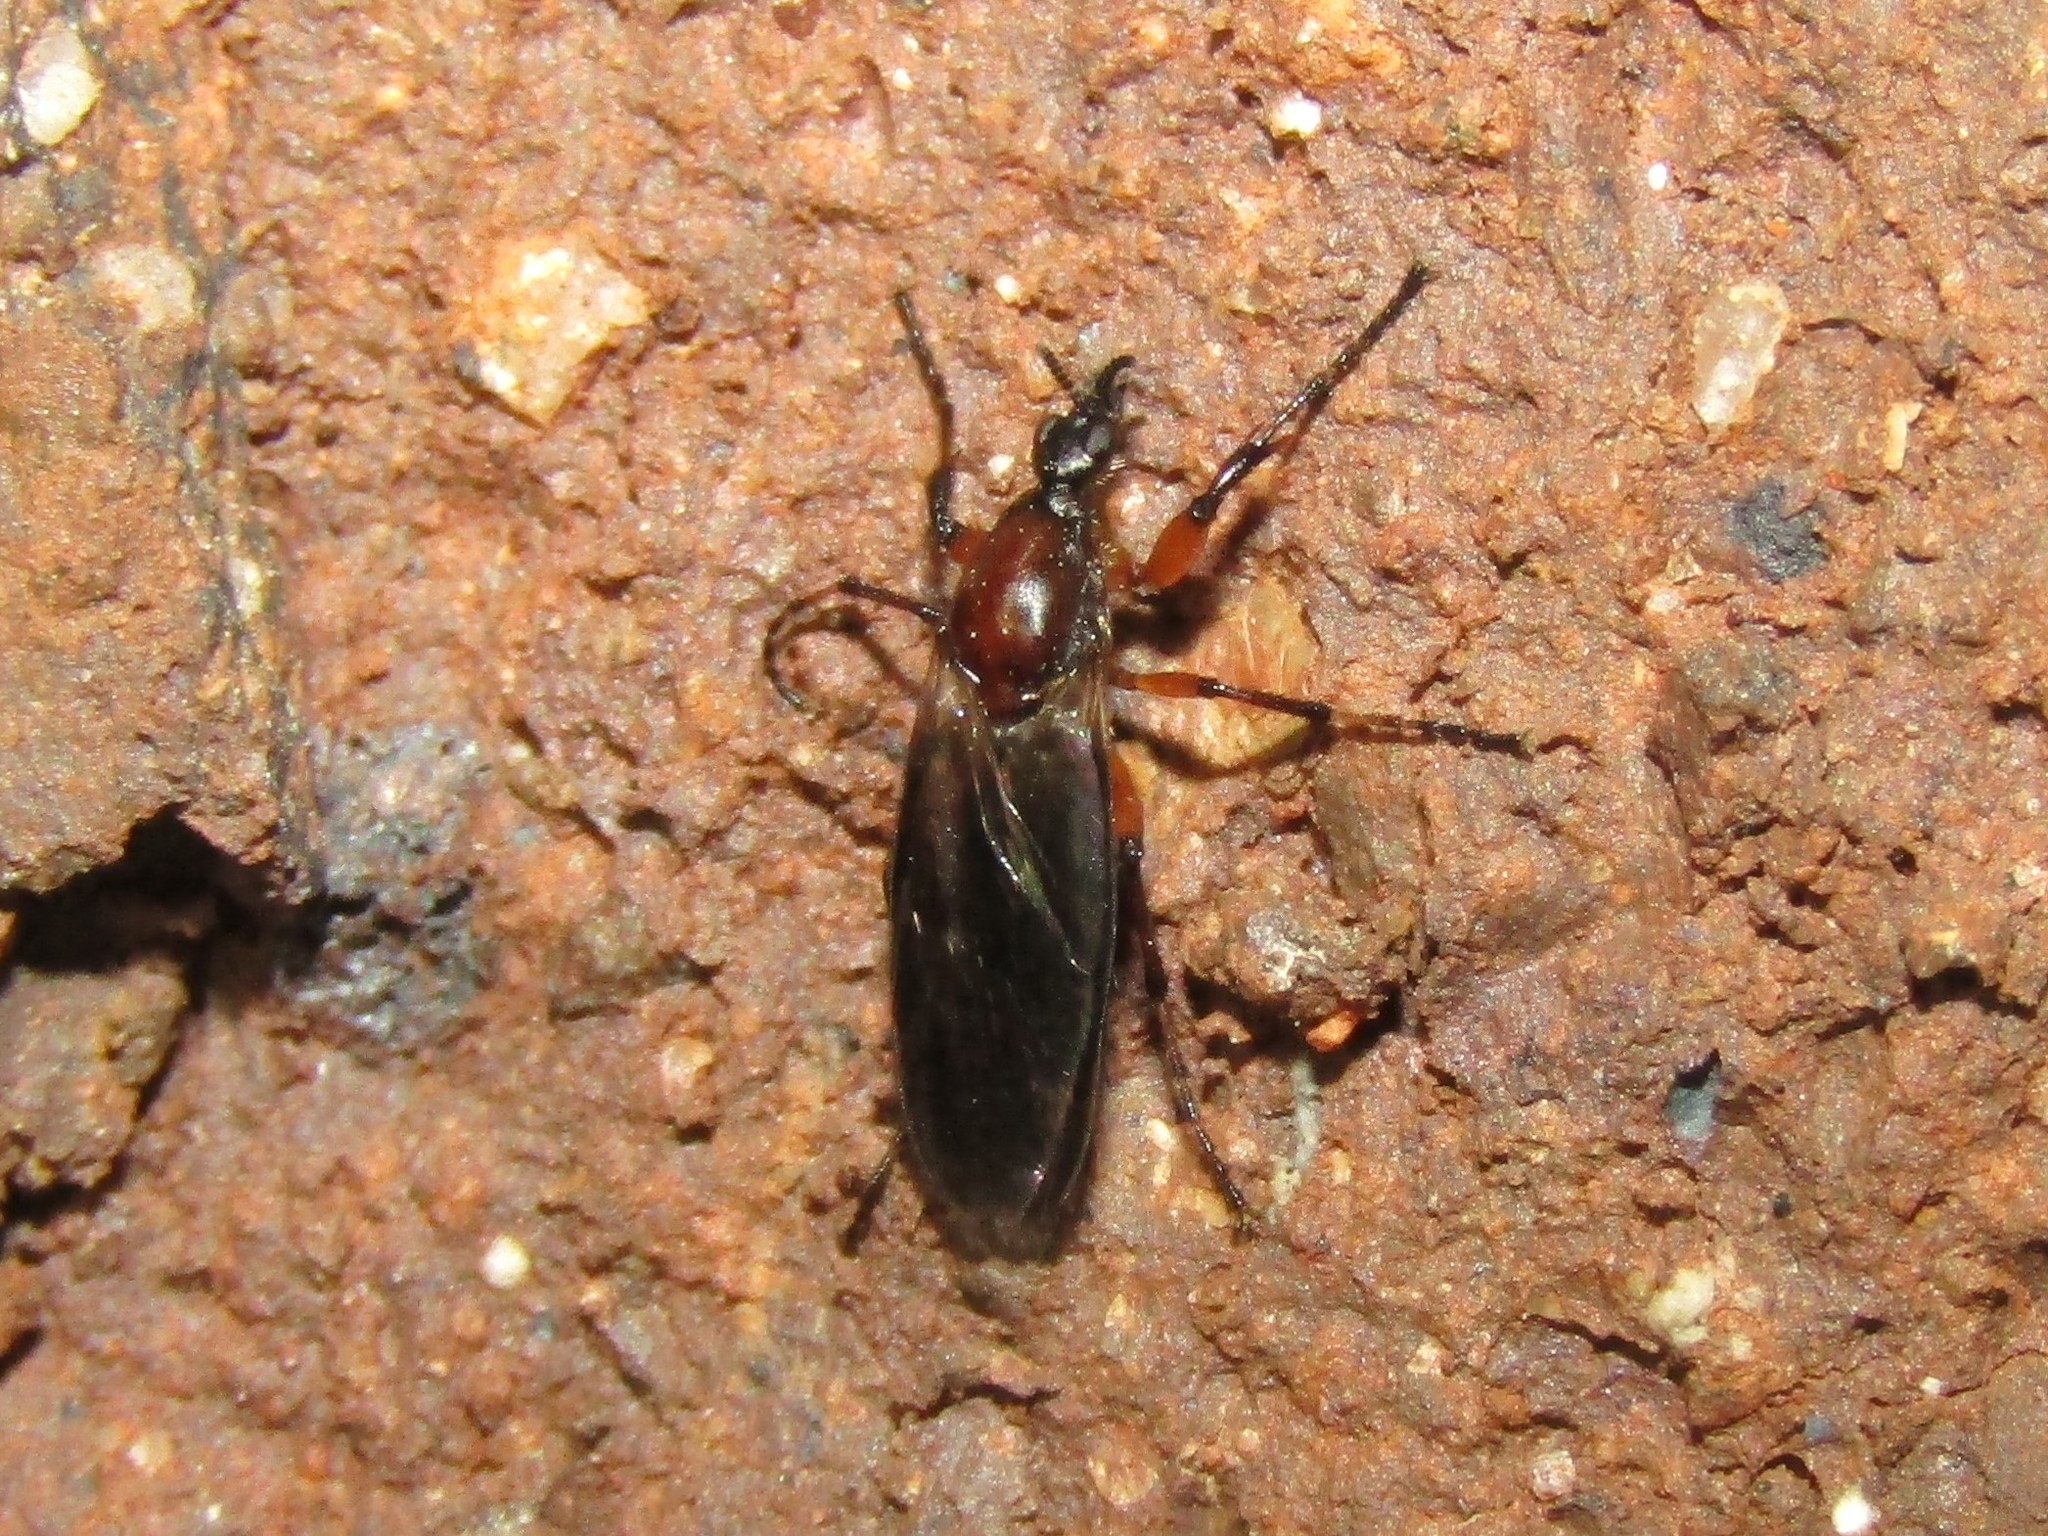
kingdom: Animalia
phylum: Arthropoda
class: Insecta
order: Diptera
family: Bibionidae
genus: Bibio
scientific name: Bibio articulatus
